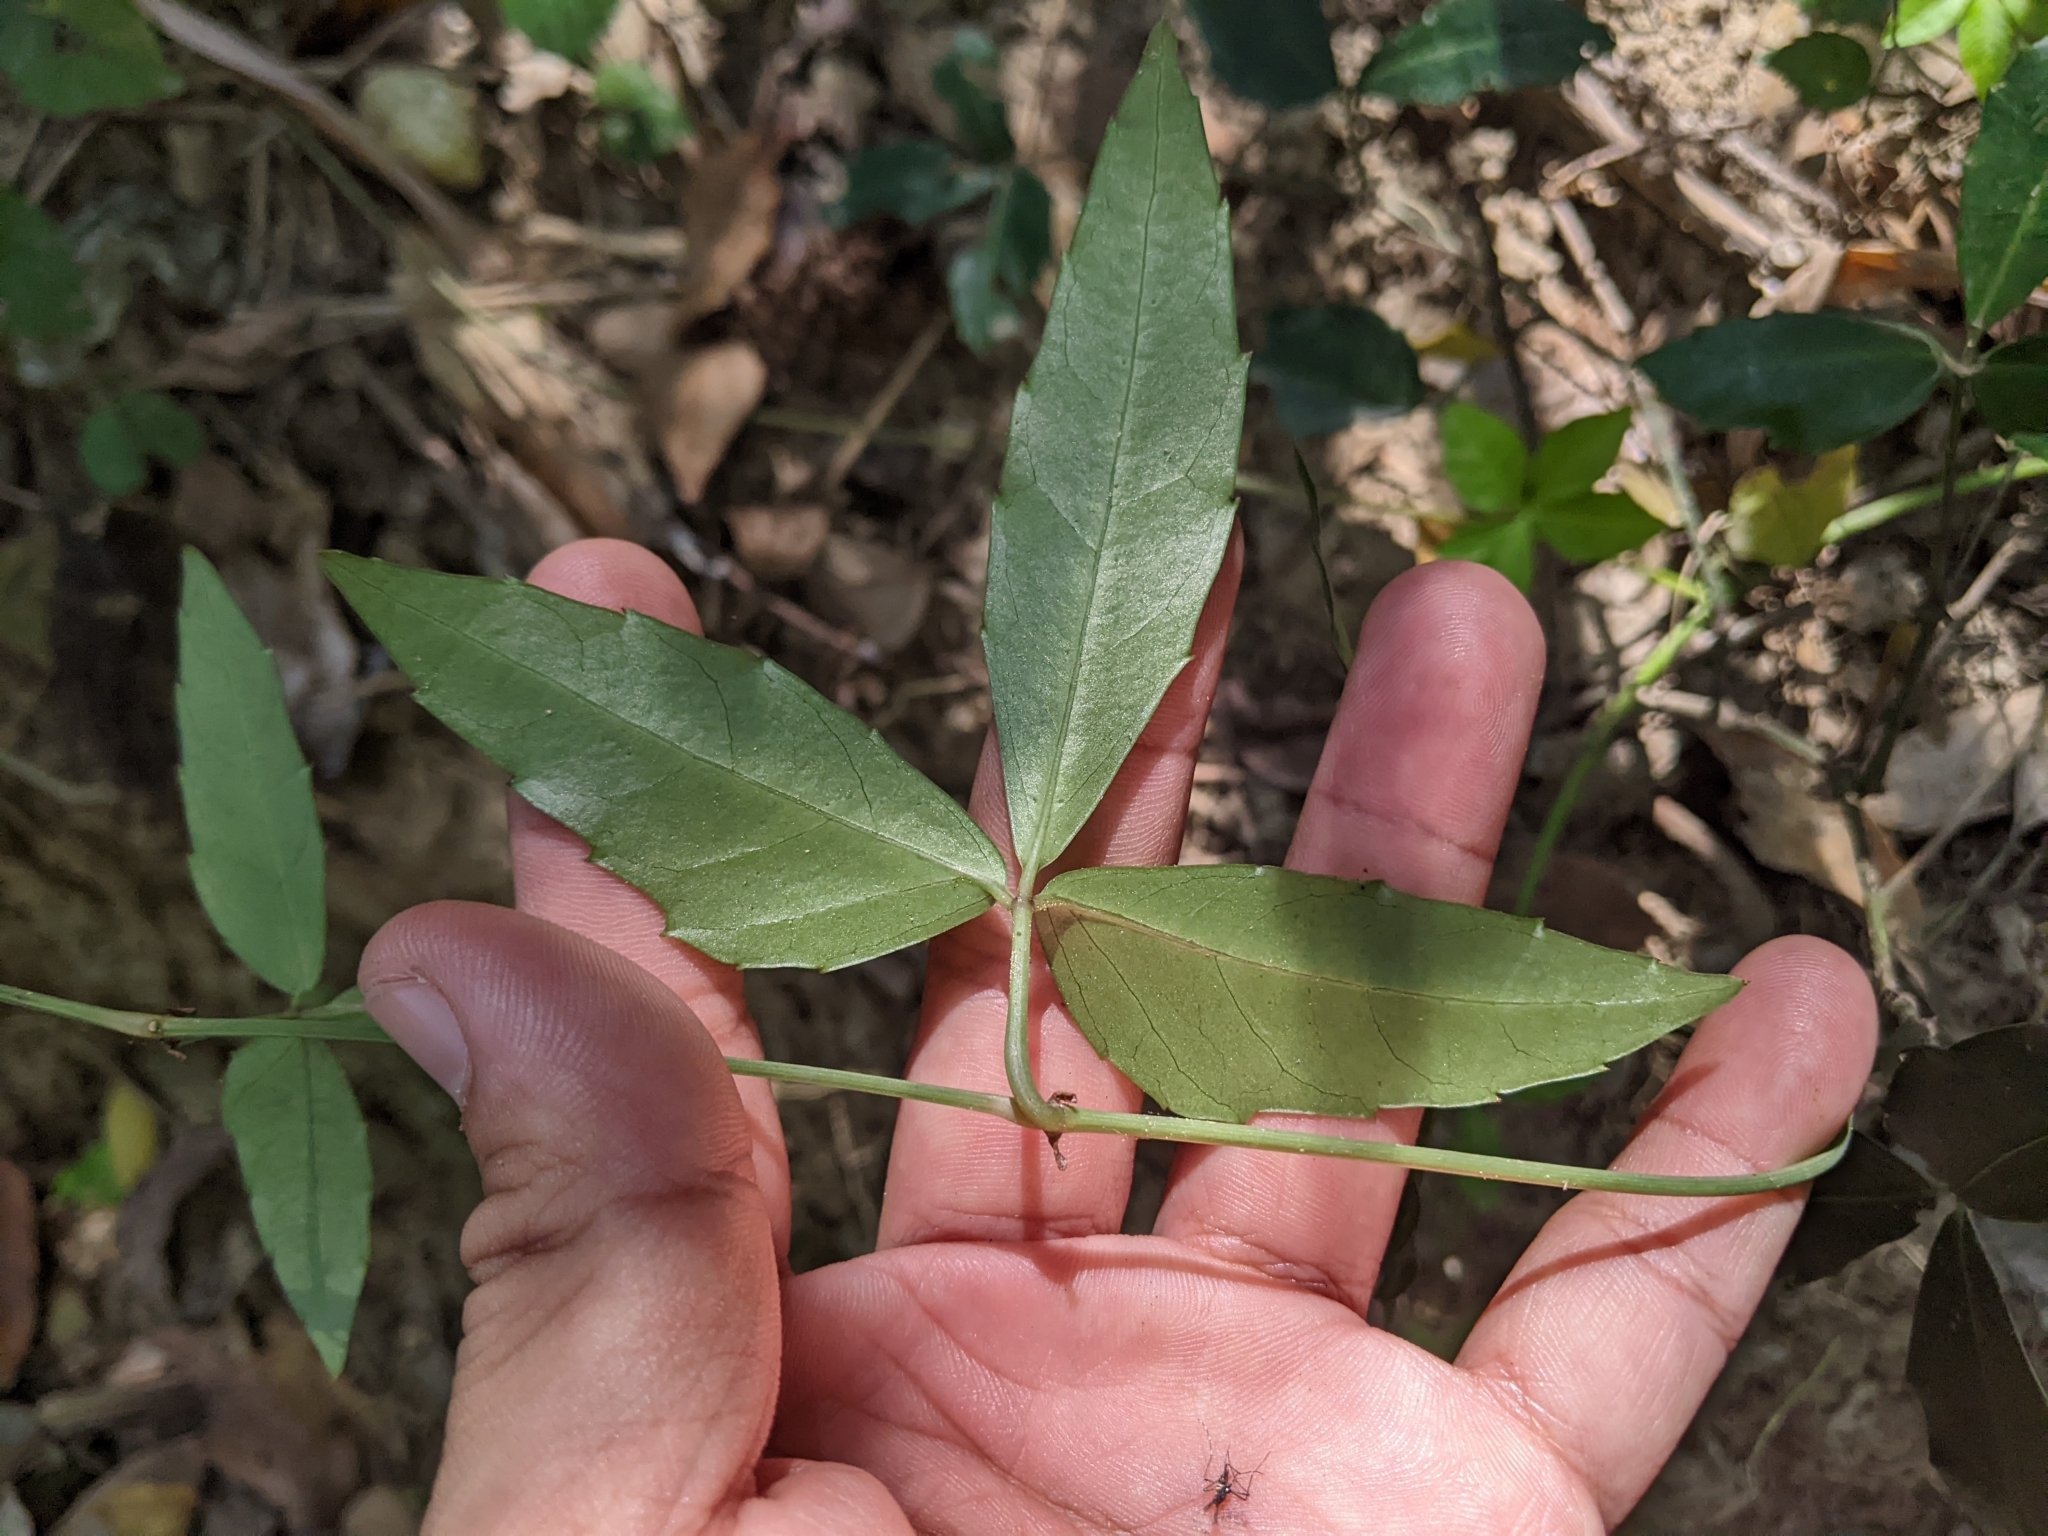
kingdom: Plantae
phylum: Tracheophyta
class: Magnoliopsida
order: Vitales
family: Vitaceae
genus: Tetrastigma
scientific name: Tetrastigma formosanum
